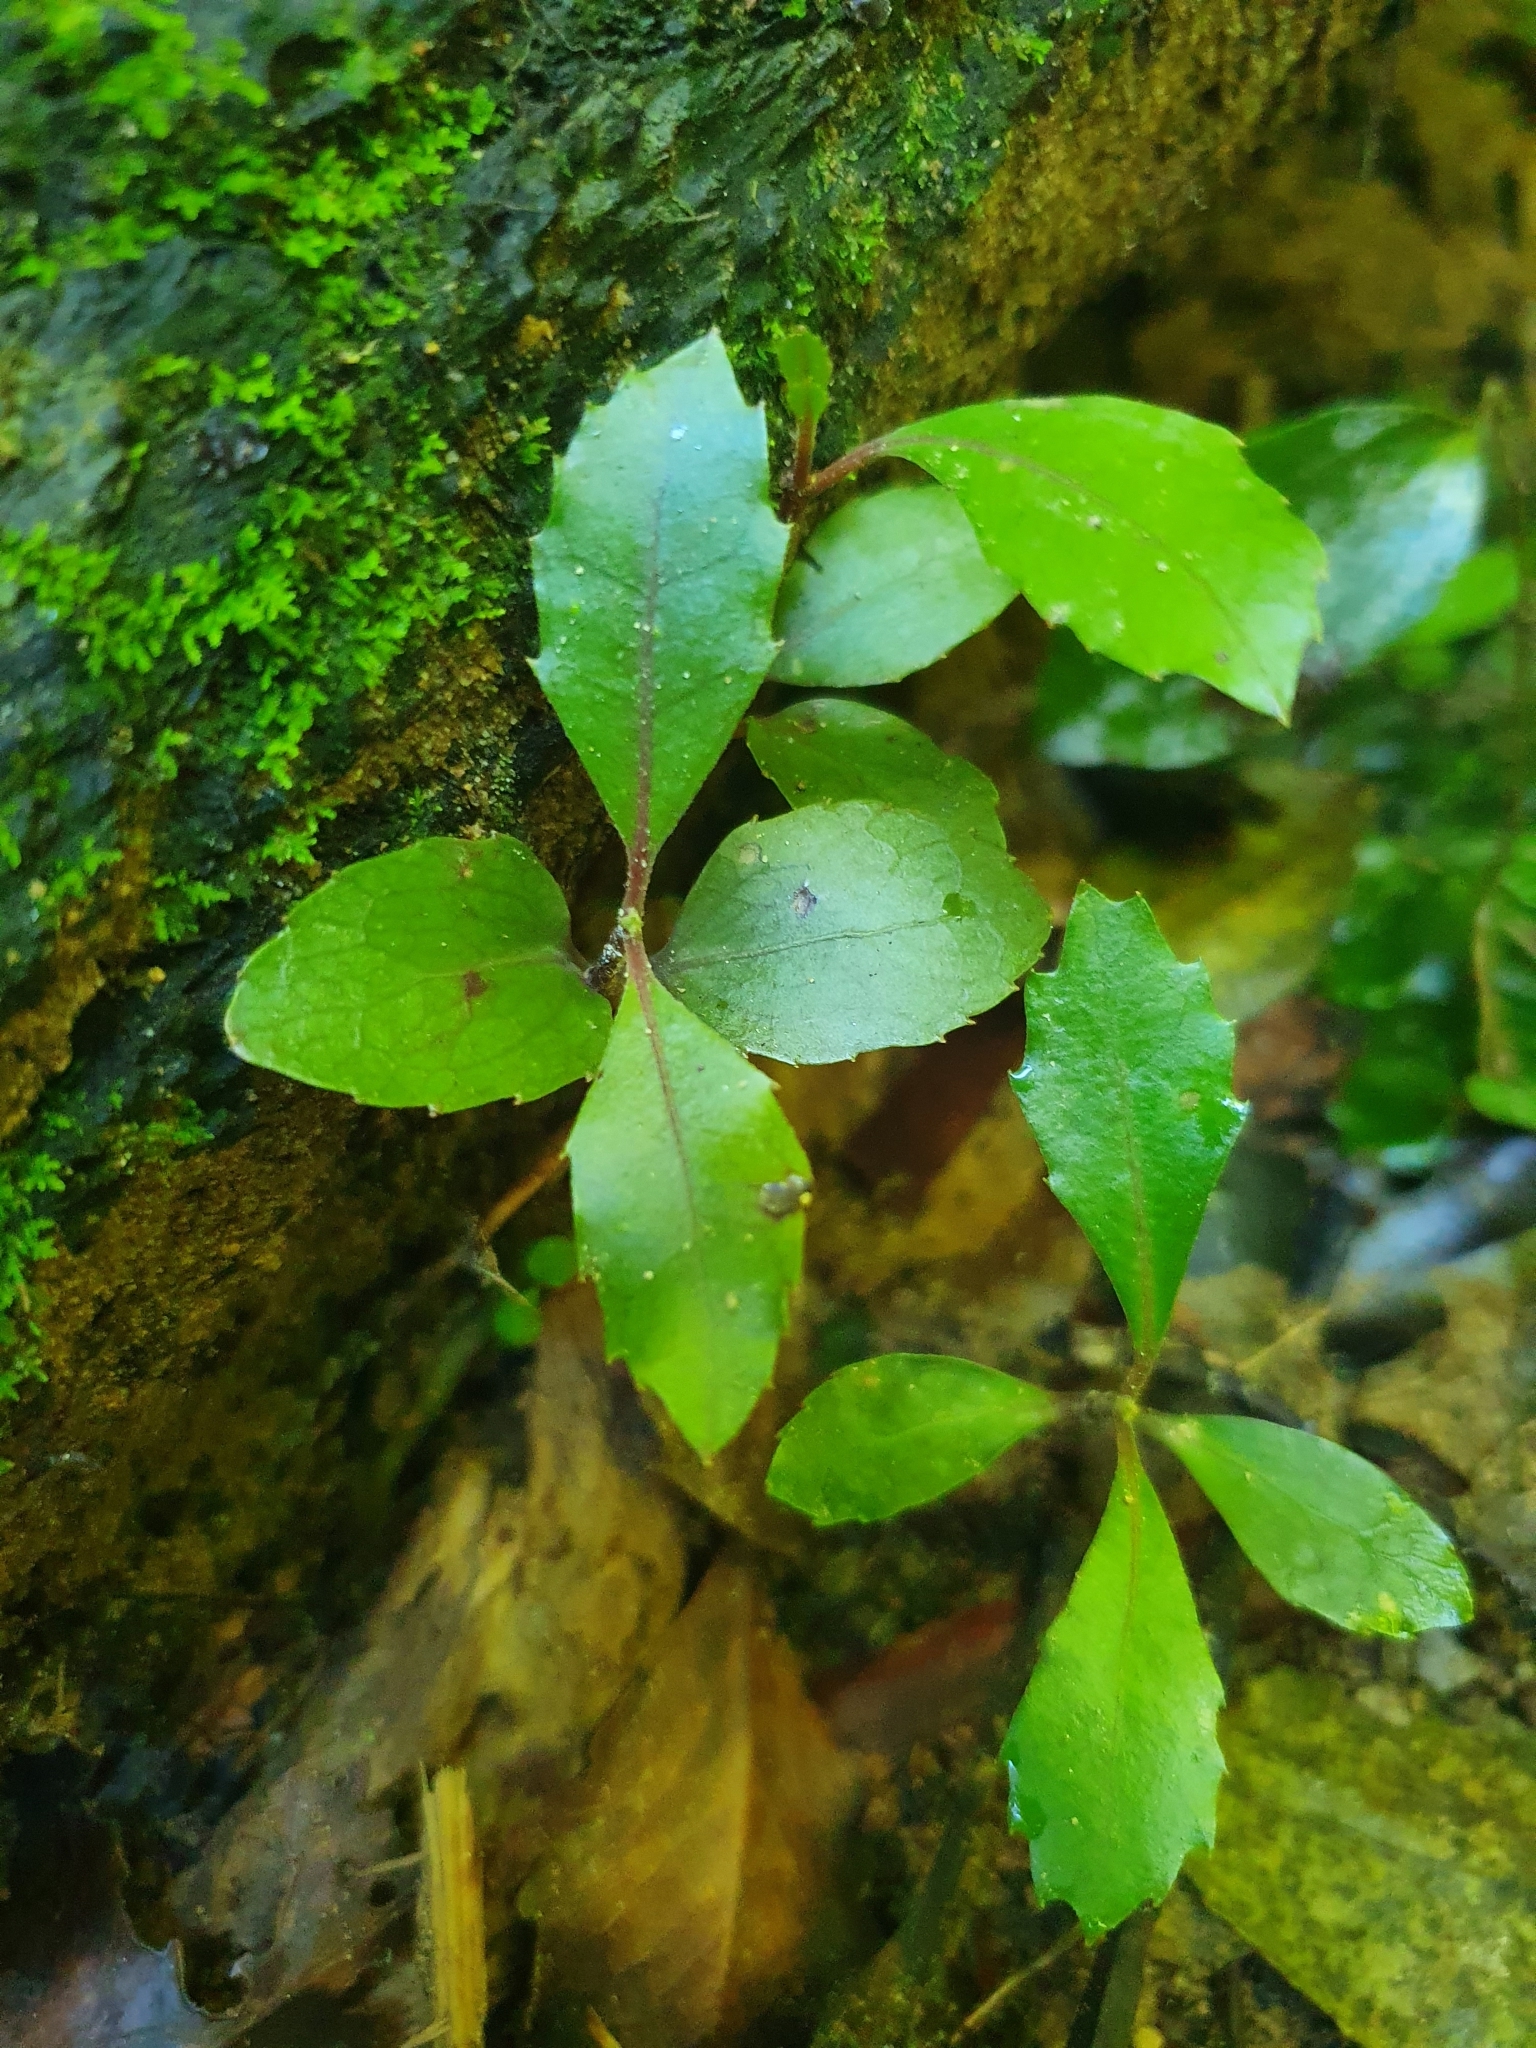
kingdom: Plantae
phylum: Tracheophyta
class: Magnoliopsida
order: Laurales
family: Monimiaceae
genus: Hedycarya
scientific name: Hedycarya arborea
